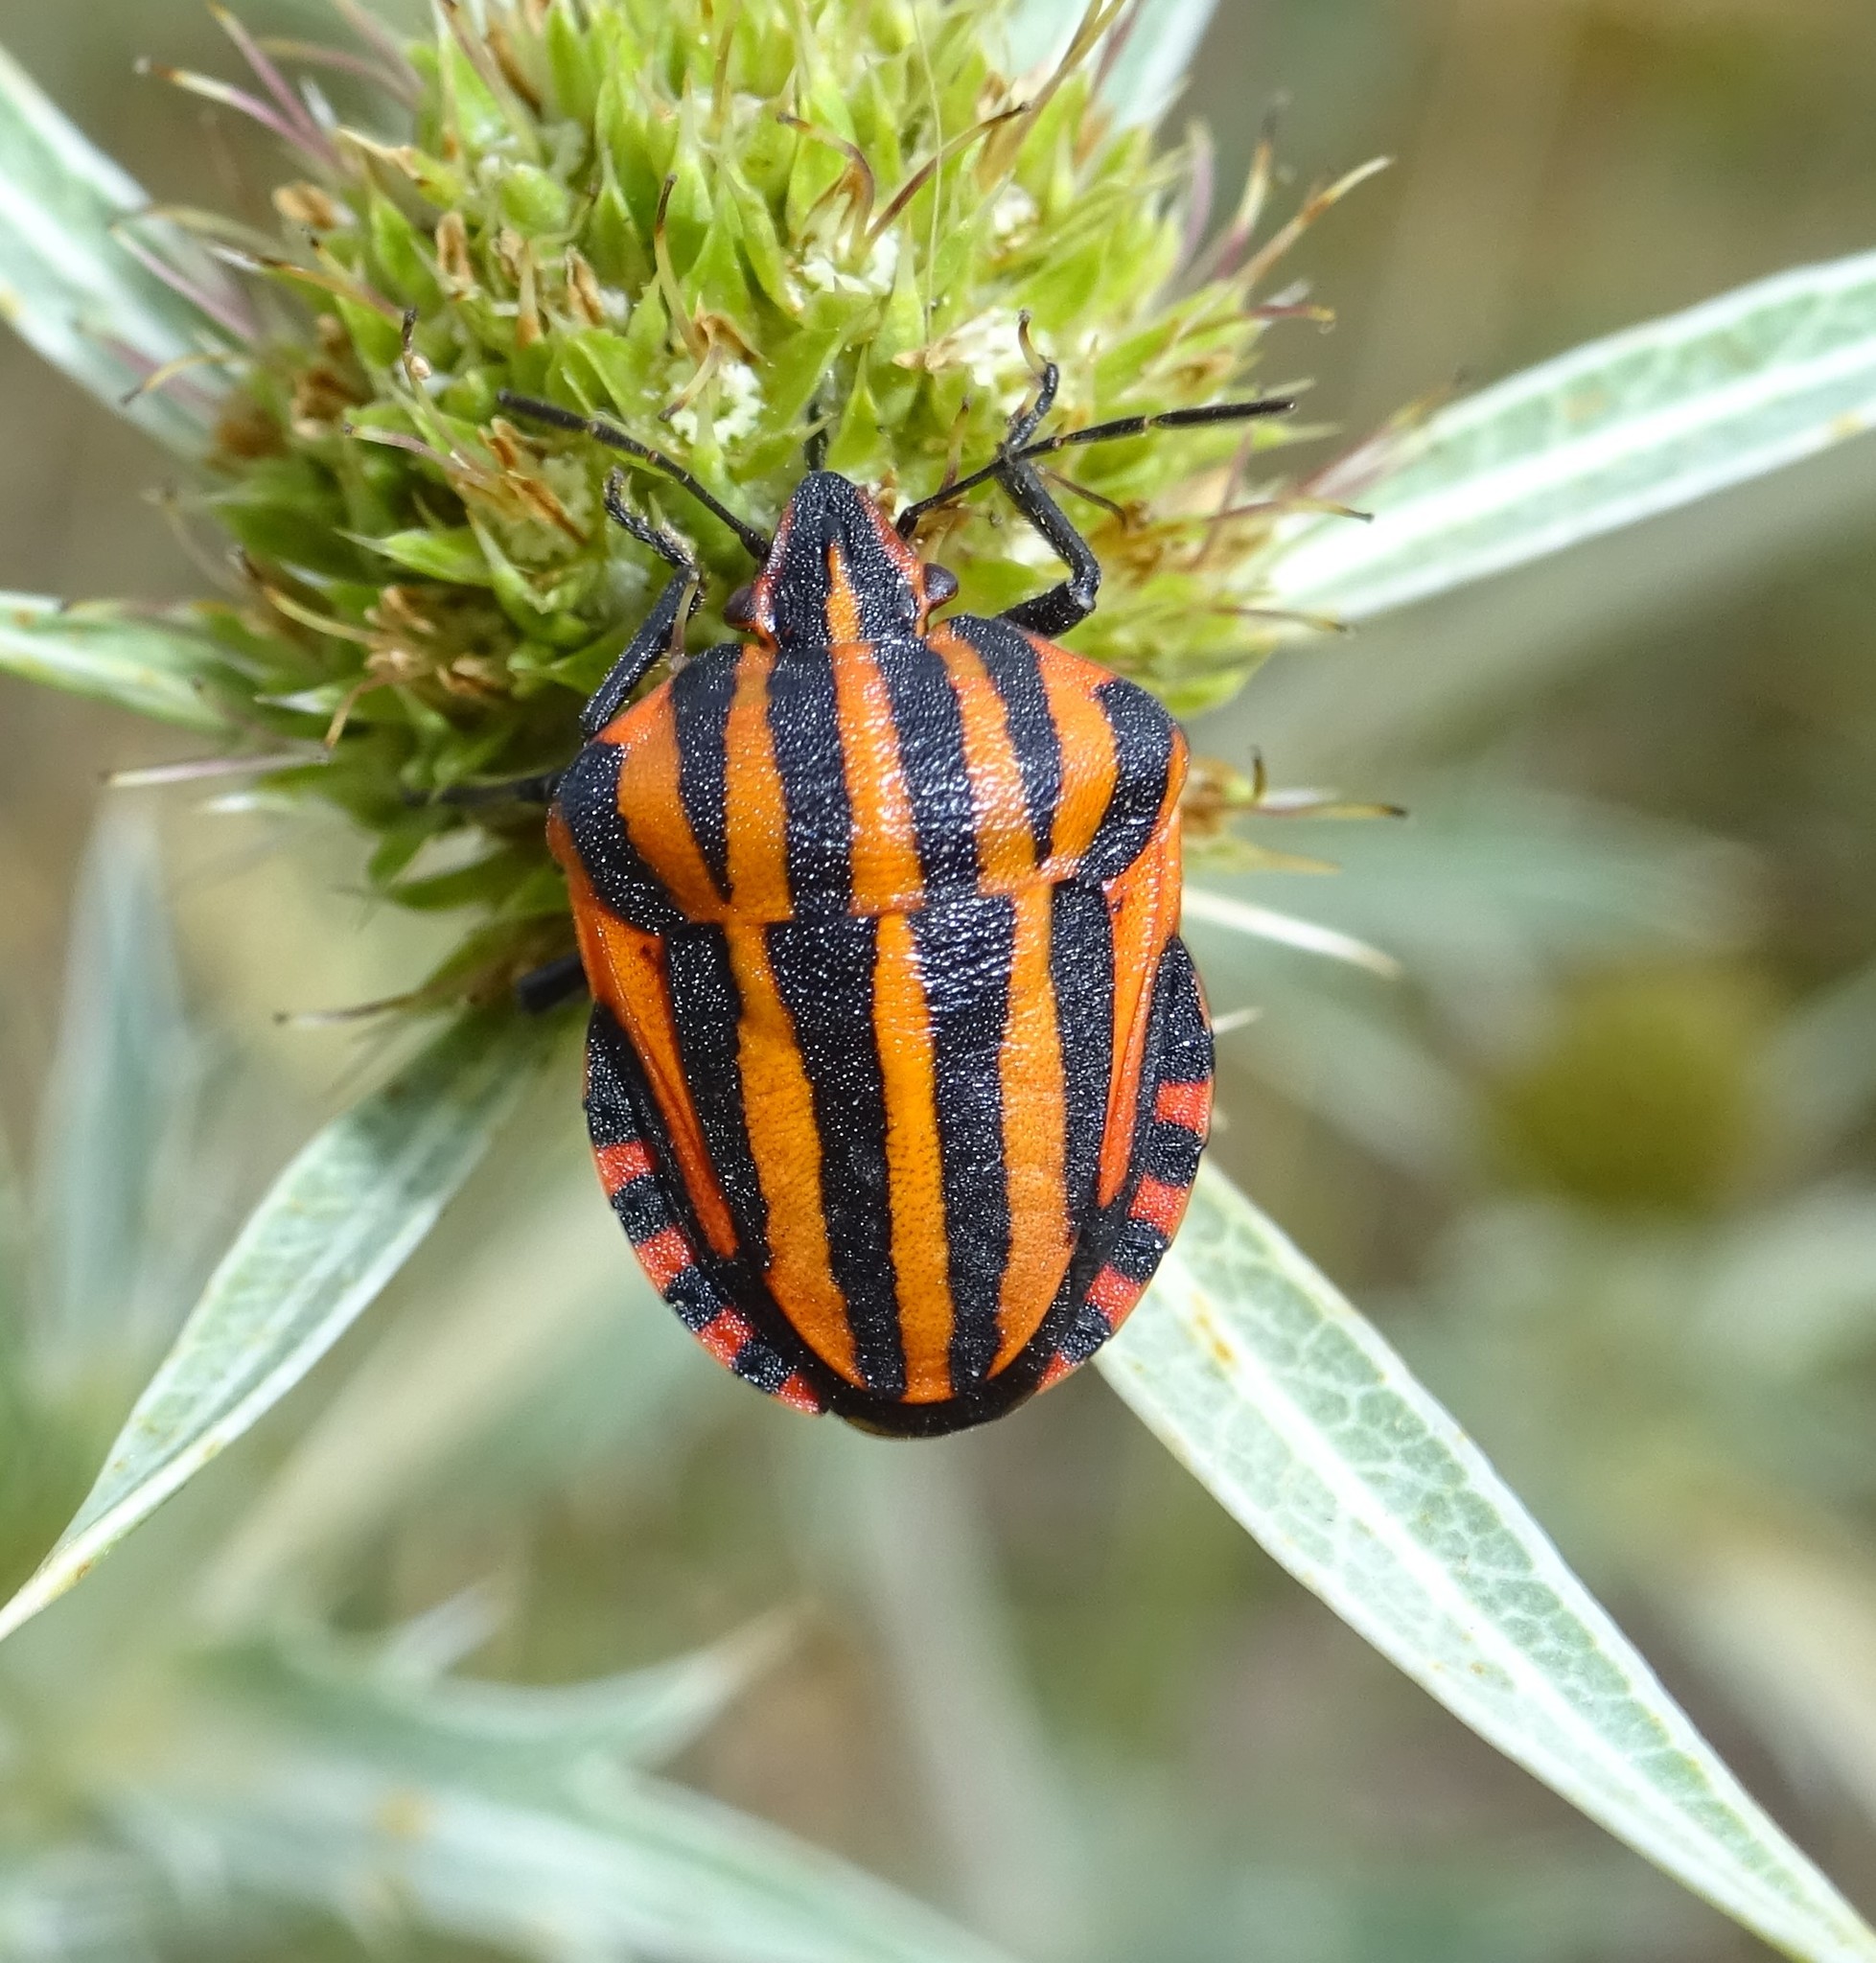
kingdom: Animalia
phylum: Arthropoda
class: Insecta
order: Hemiptera
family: Pentatomidae
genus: Graphosoma
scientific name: Graphosoma italicum
